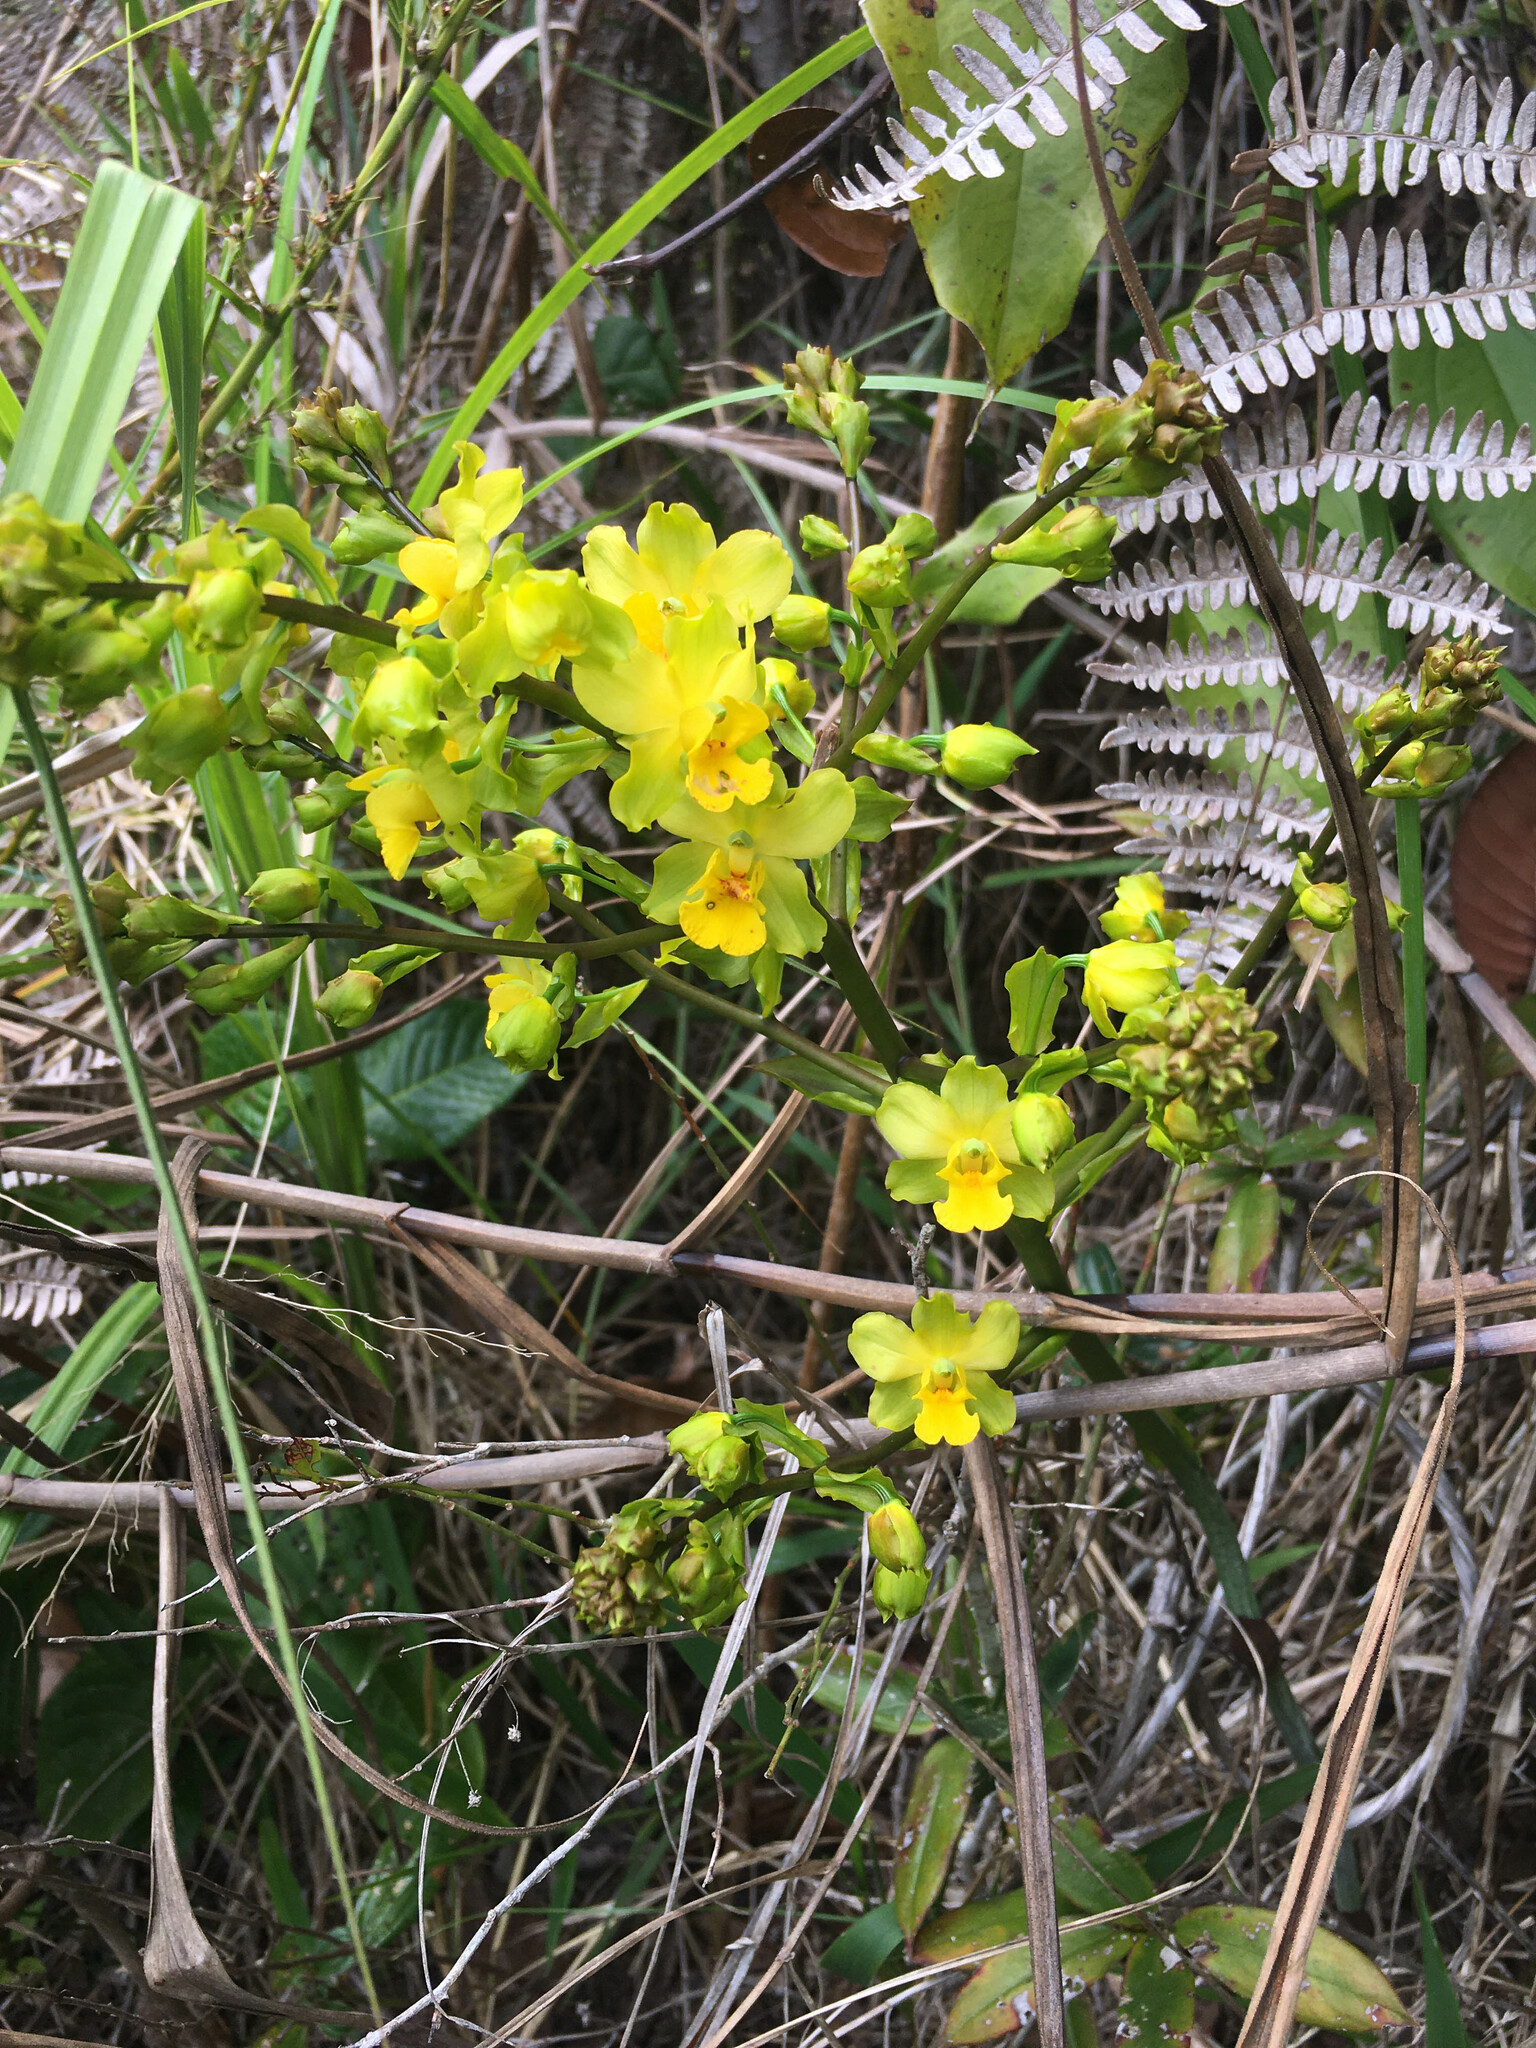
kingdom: Plantae
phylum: Tracheophyta
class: Liliopsida
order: Asparagales
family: Orchidaceae
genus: Cyrtopodium
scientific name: Cyrtopodium flavum
